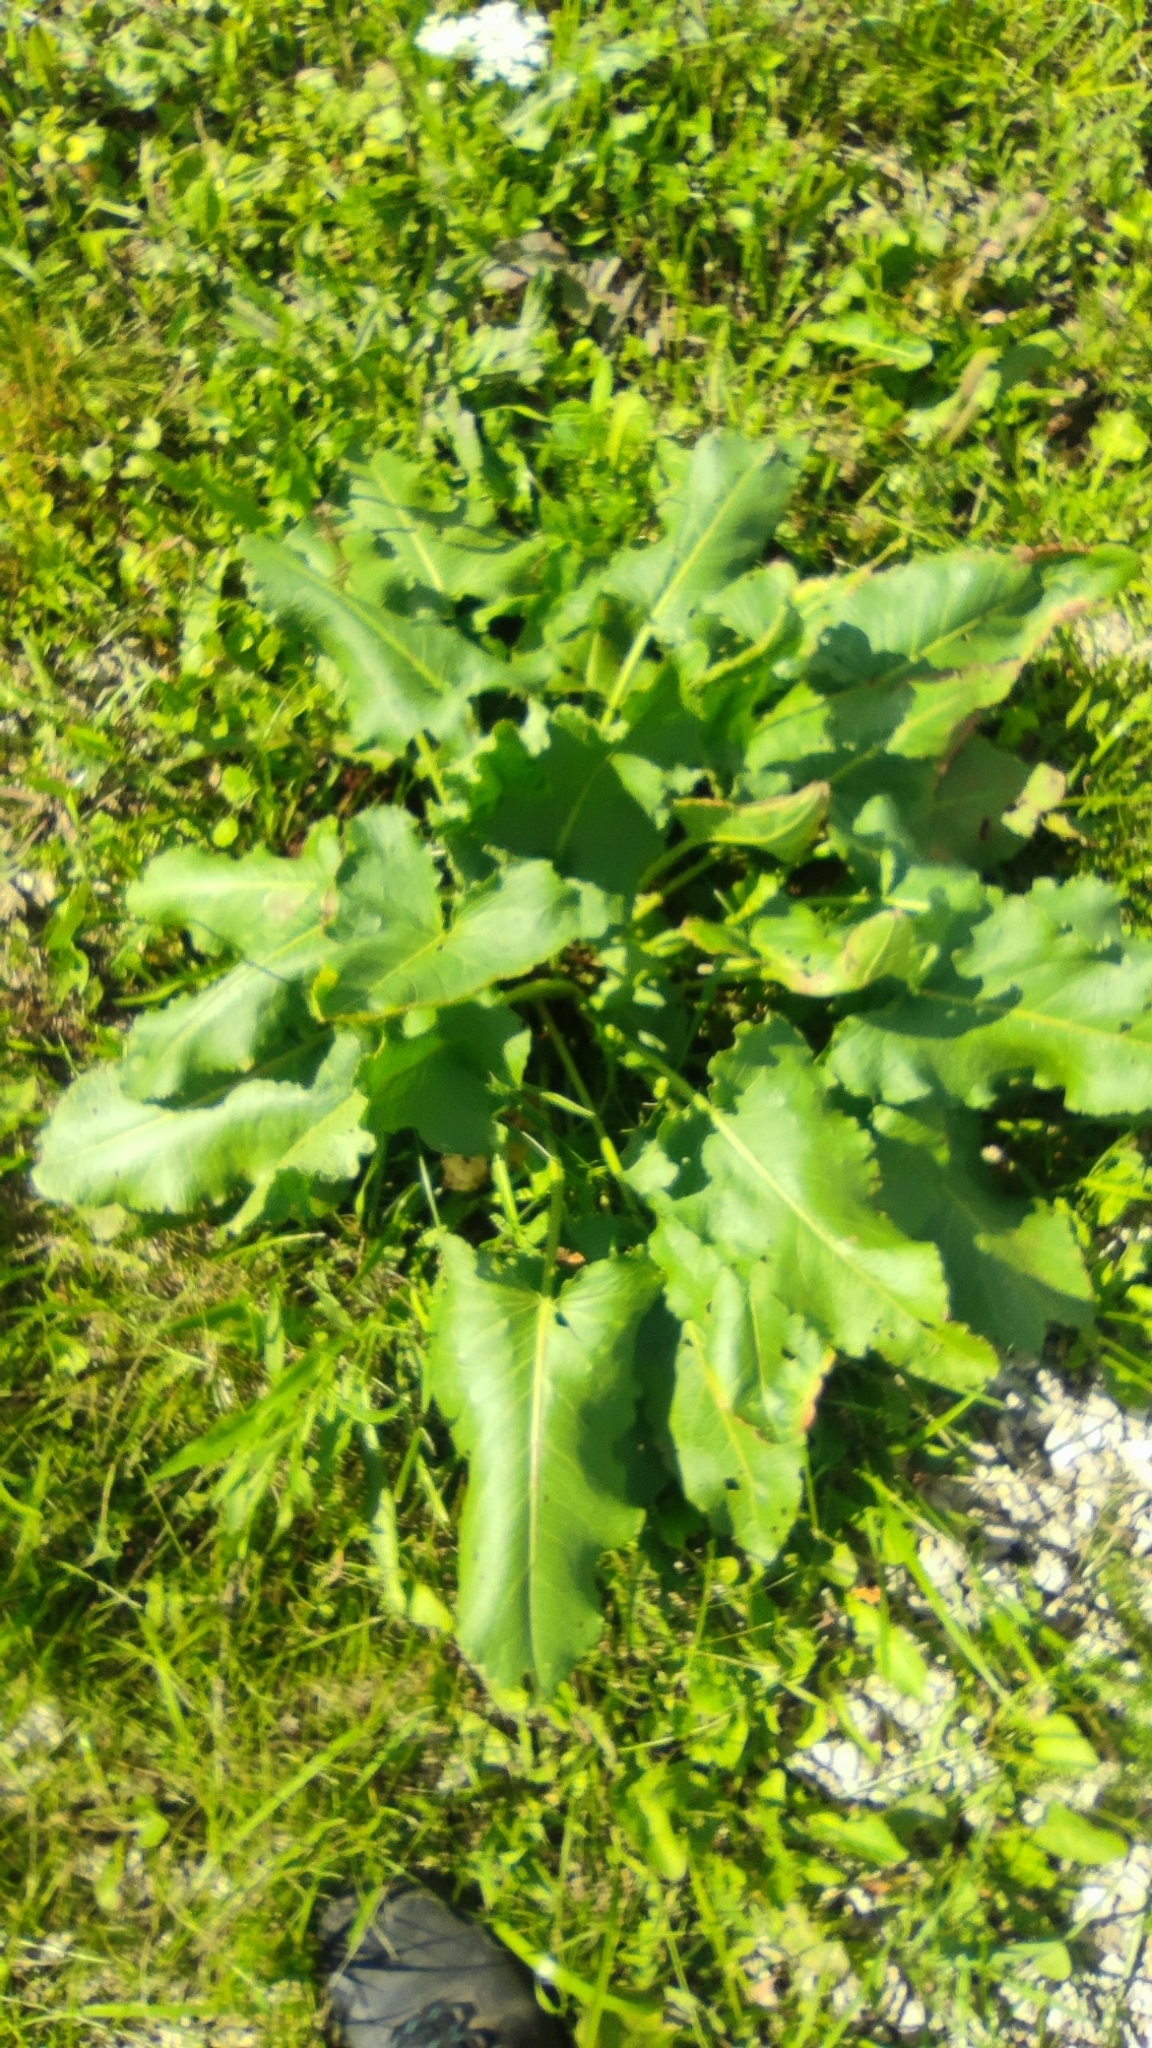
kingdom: Plantae
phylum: Tracheophyta
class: Magnoliopsida
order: Caryophyllales
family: Polygonaceae
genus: Rumex
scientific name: Rumex confertus
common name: Russian dock
